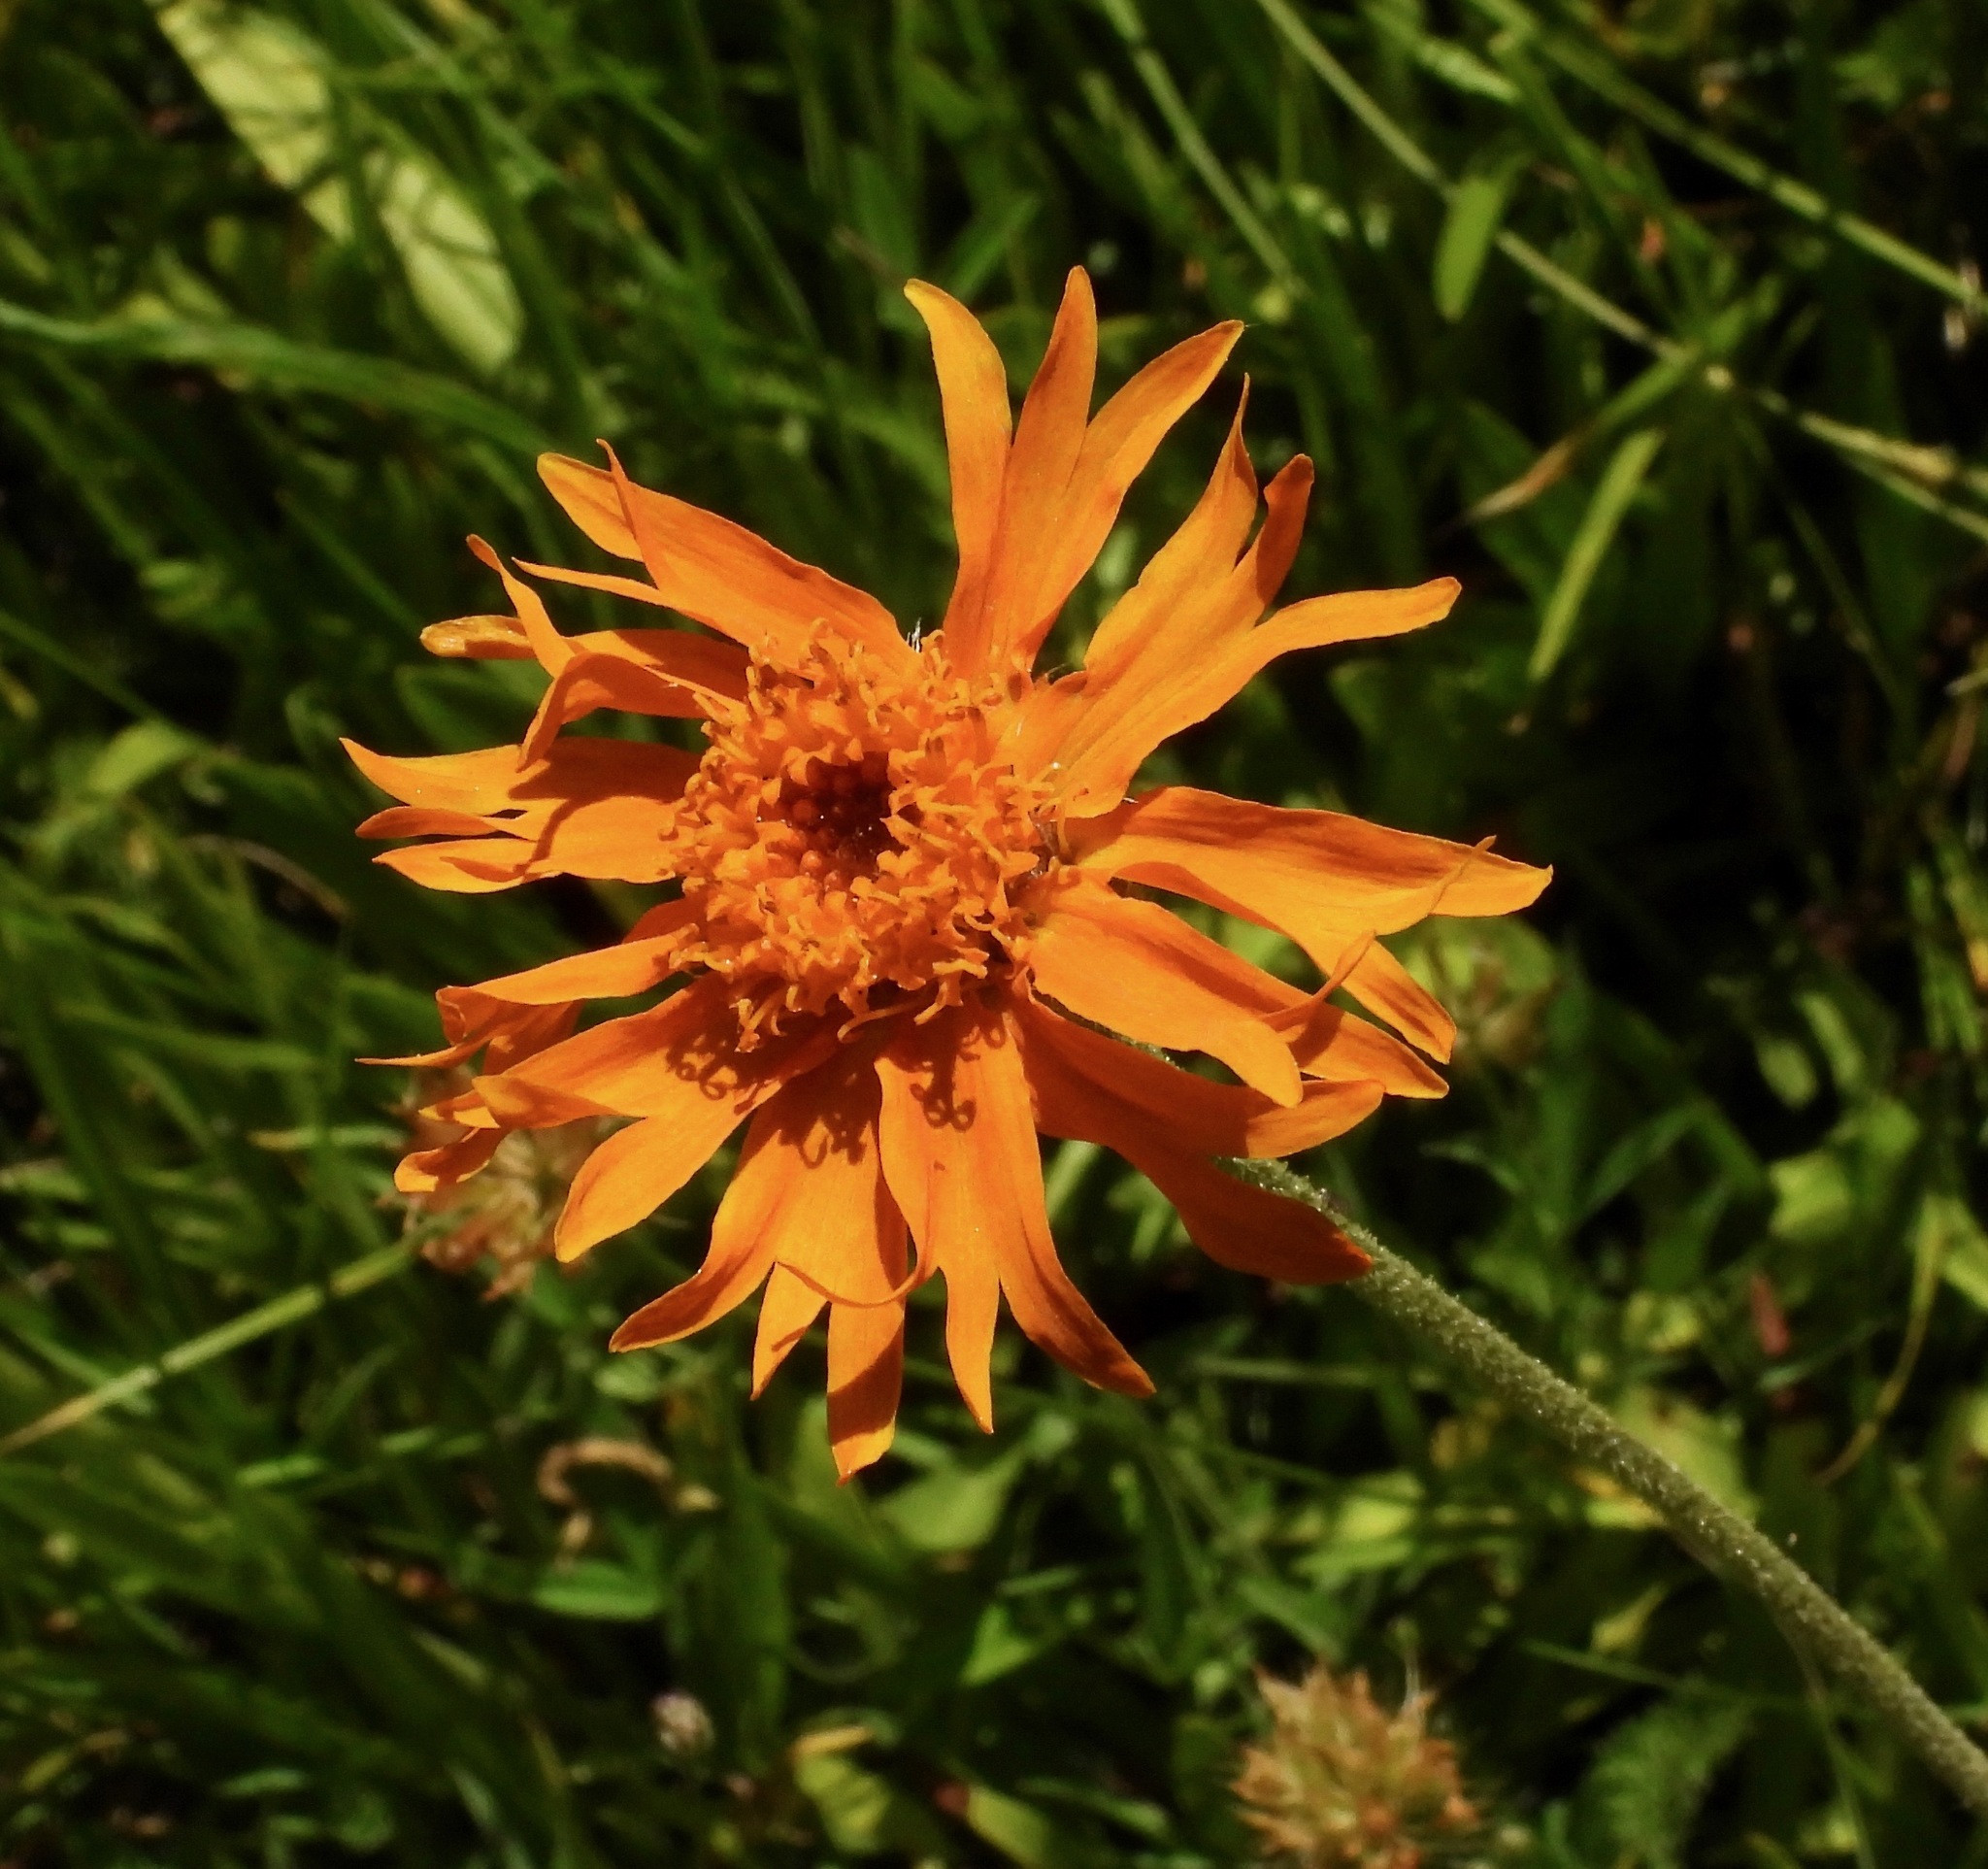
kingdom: Plantae
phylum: Tracheophyta
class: Magnoliopsida
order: Asterales
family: Asteraceae
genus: Raillardella
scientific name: Raillardella pringlei
